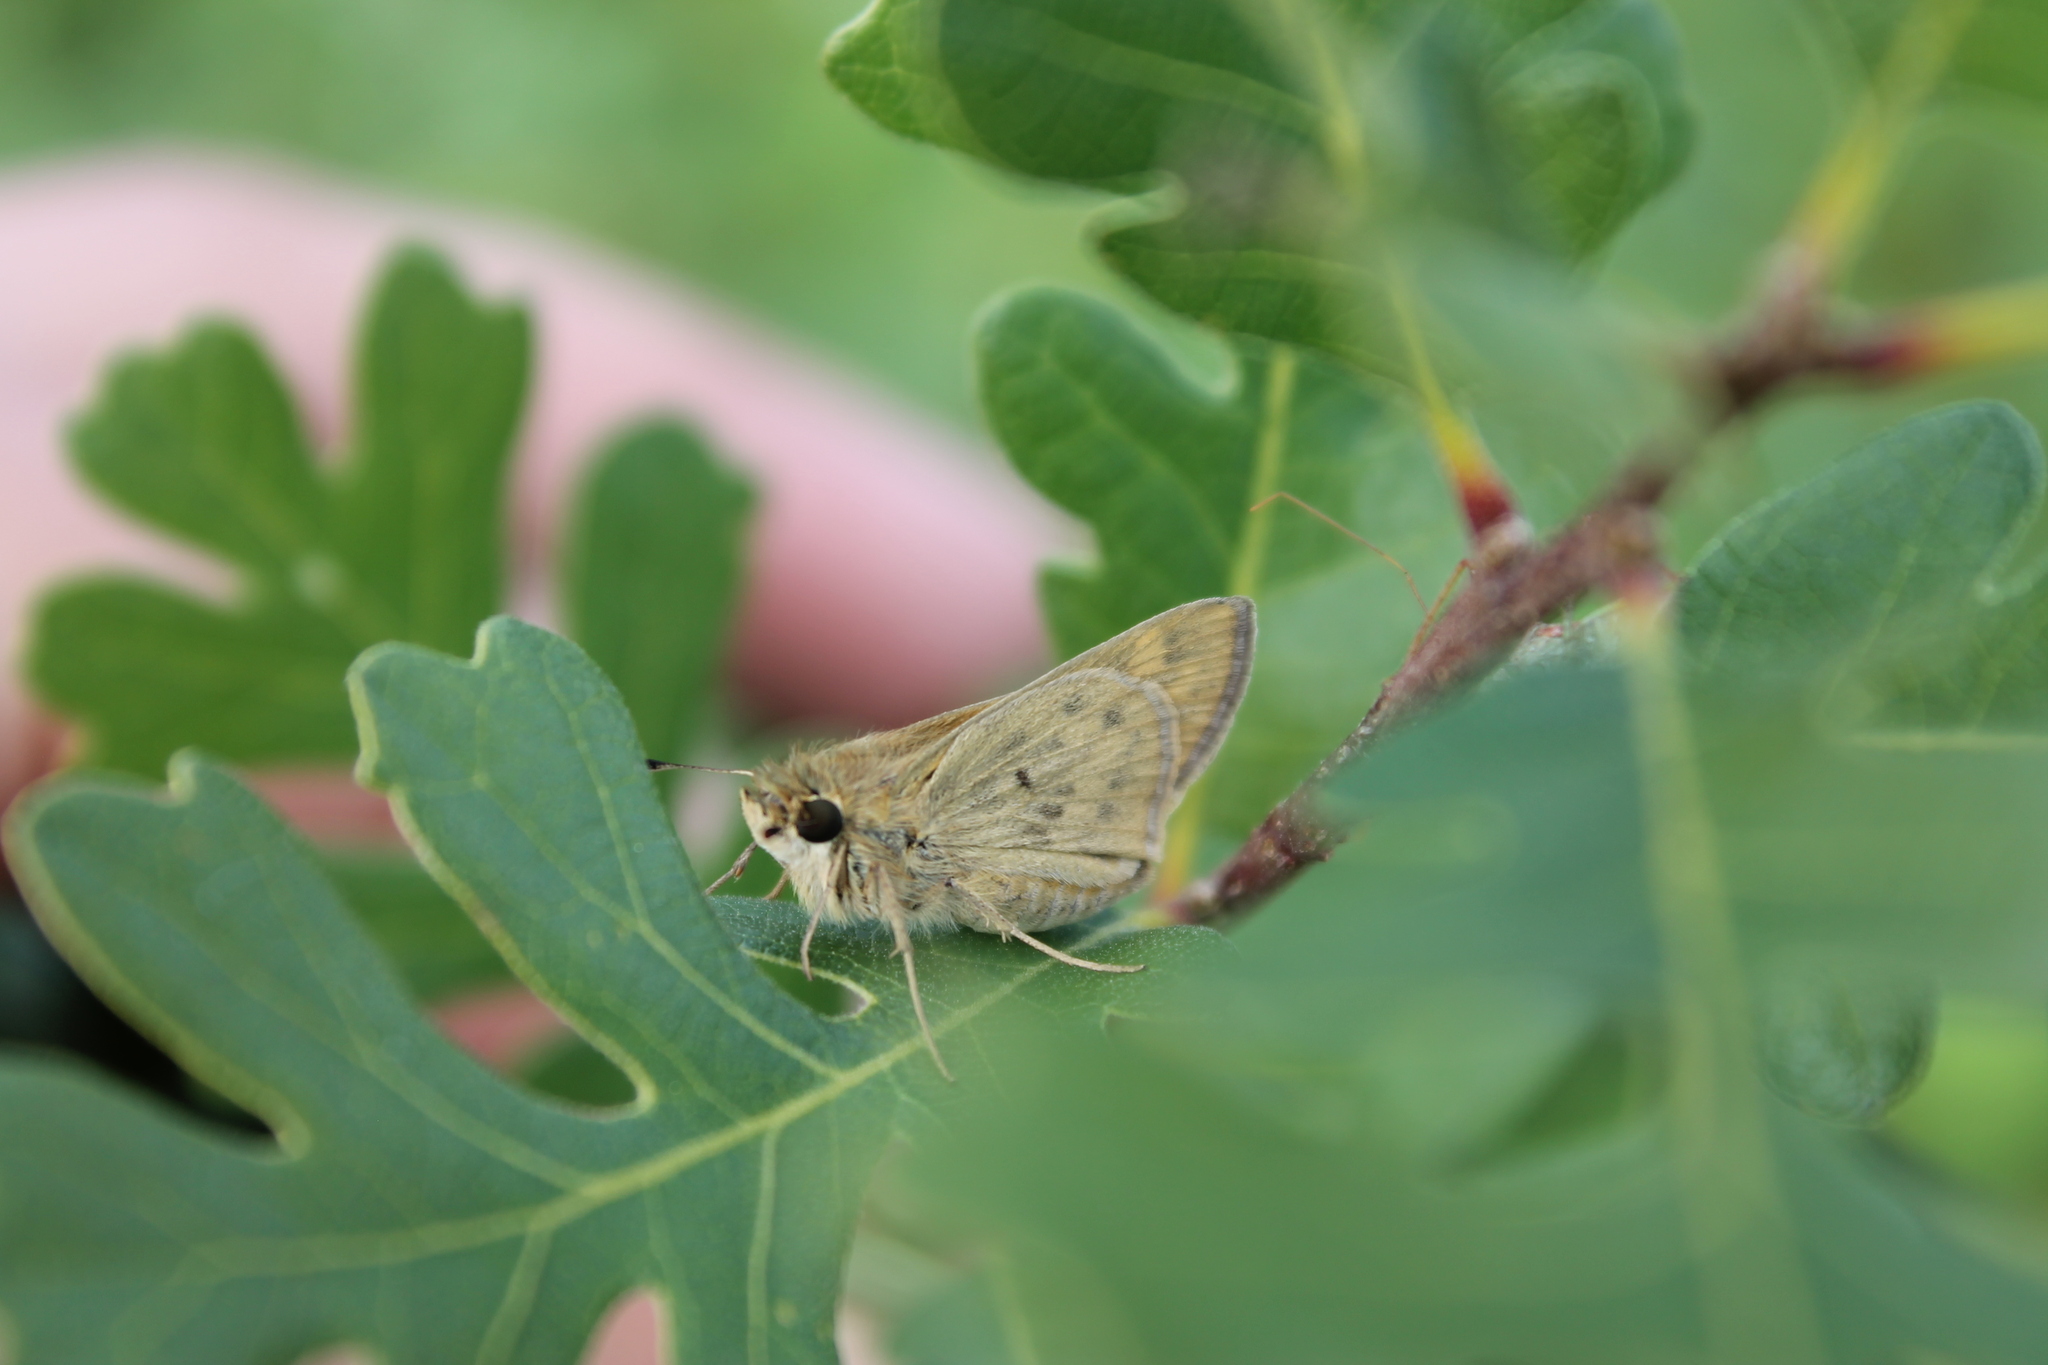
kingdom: Animalia
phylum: Arthropoda
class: Insecta
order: Lepidoptera
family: Hesperiidae
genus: Hylephila
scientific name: Hylephila phyleus
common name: Fiery skipper
